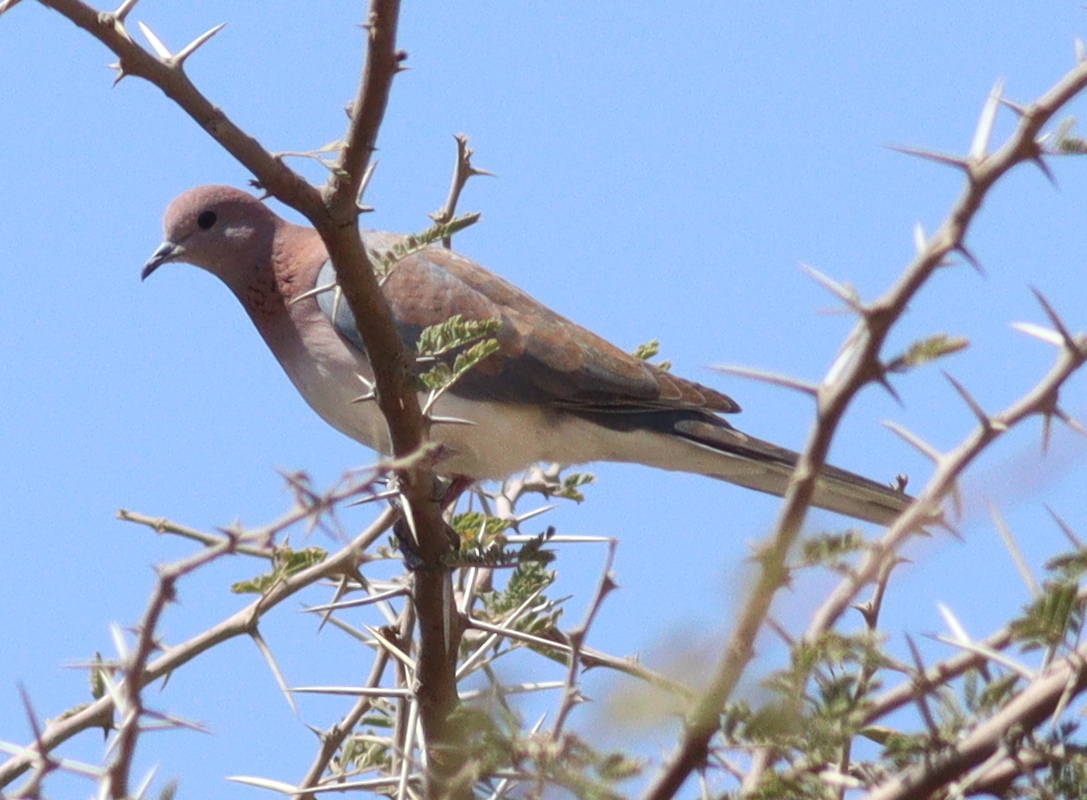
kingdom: Animalia
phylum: Chordata
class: Aves
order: Columbiformes
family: Columbidae
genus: Spilopelia
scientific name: Spilopelia senegalensis
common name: Laughing dove
